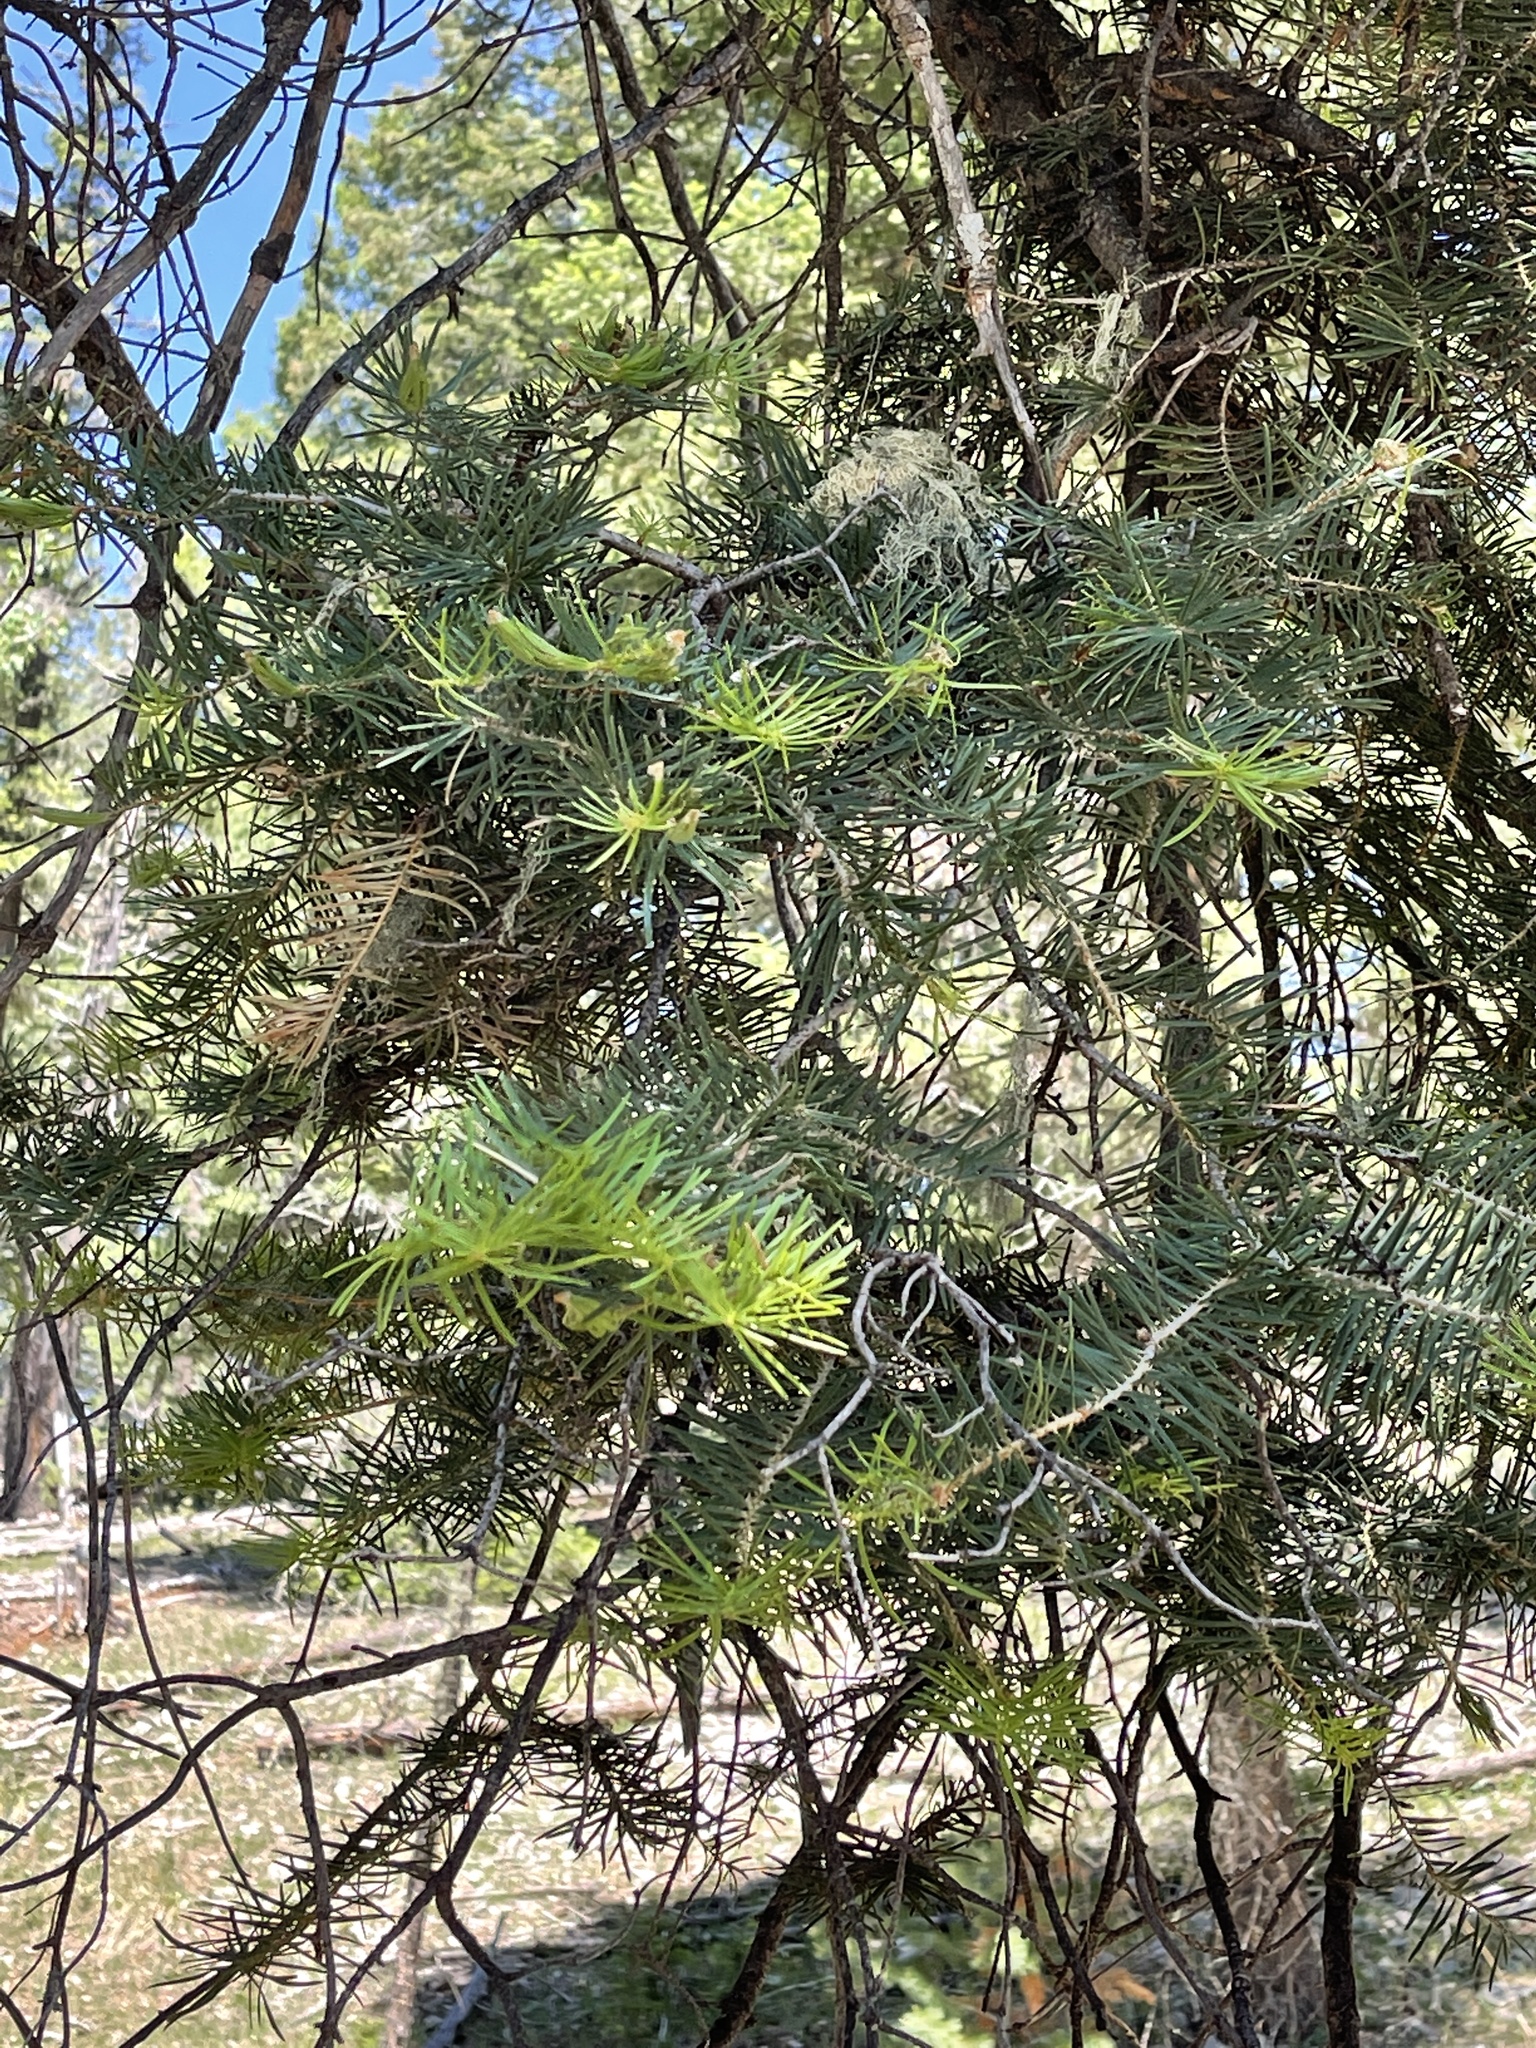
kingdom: Plantae
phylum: Tracheophyta
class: Pinopsida
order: Pinales
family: Pinaceae
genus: Abies
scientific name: Abies concolor
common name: Colorado fir
